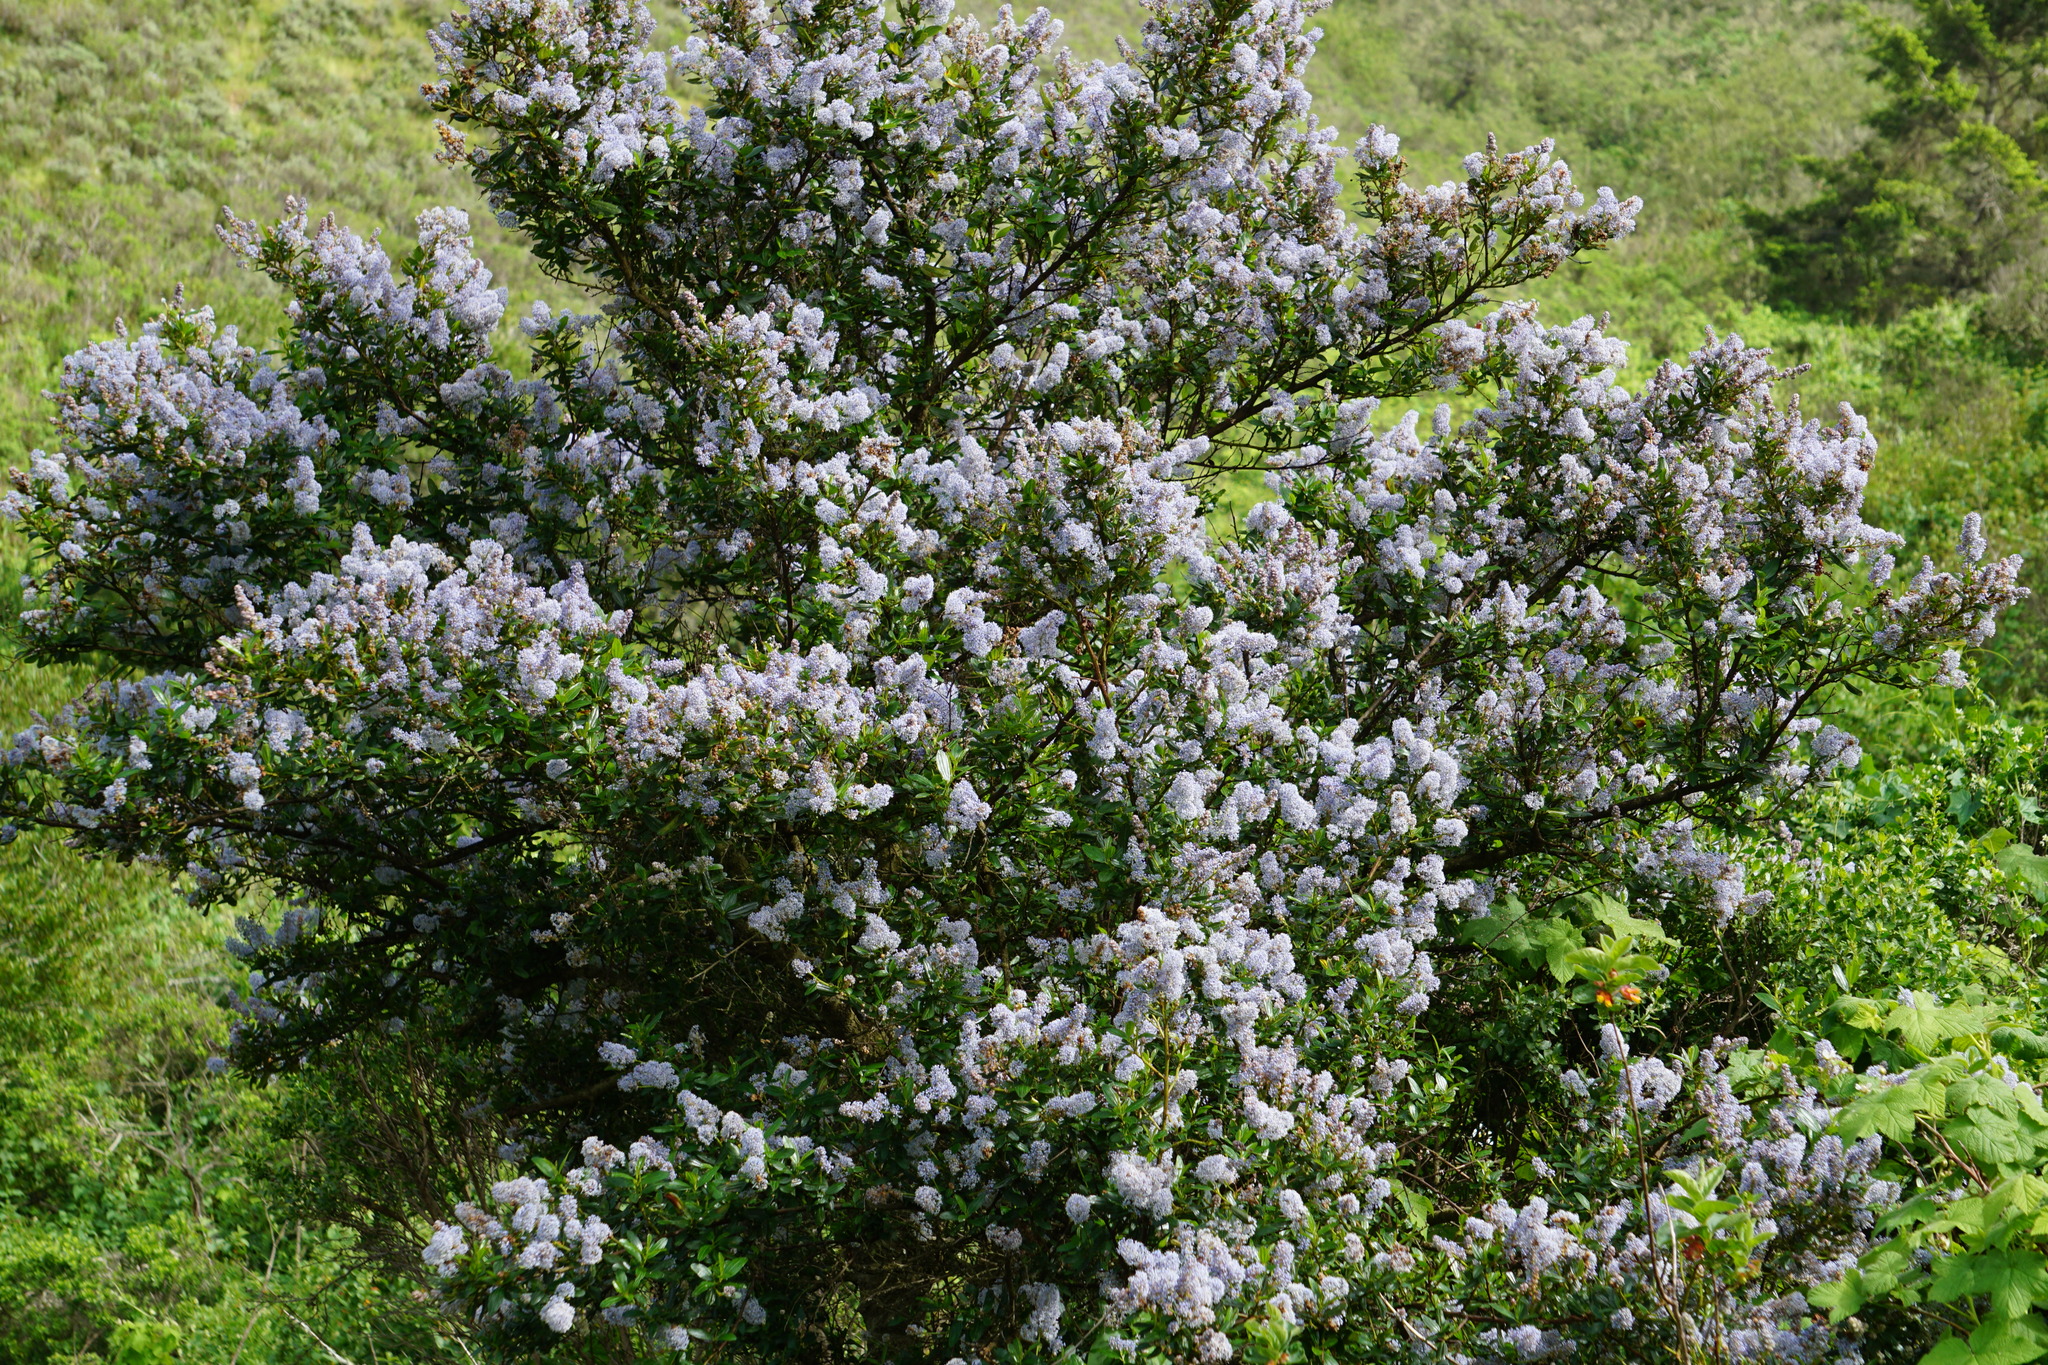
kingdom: Plantae
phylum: Tracheophyta
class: Magnoliopsida
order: Rosales
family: Rhamnaceae
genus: Ceanothus
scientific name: Ceanothus thyrsiflorus
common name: California-lilac
